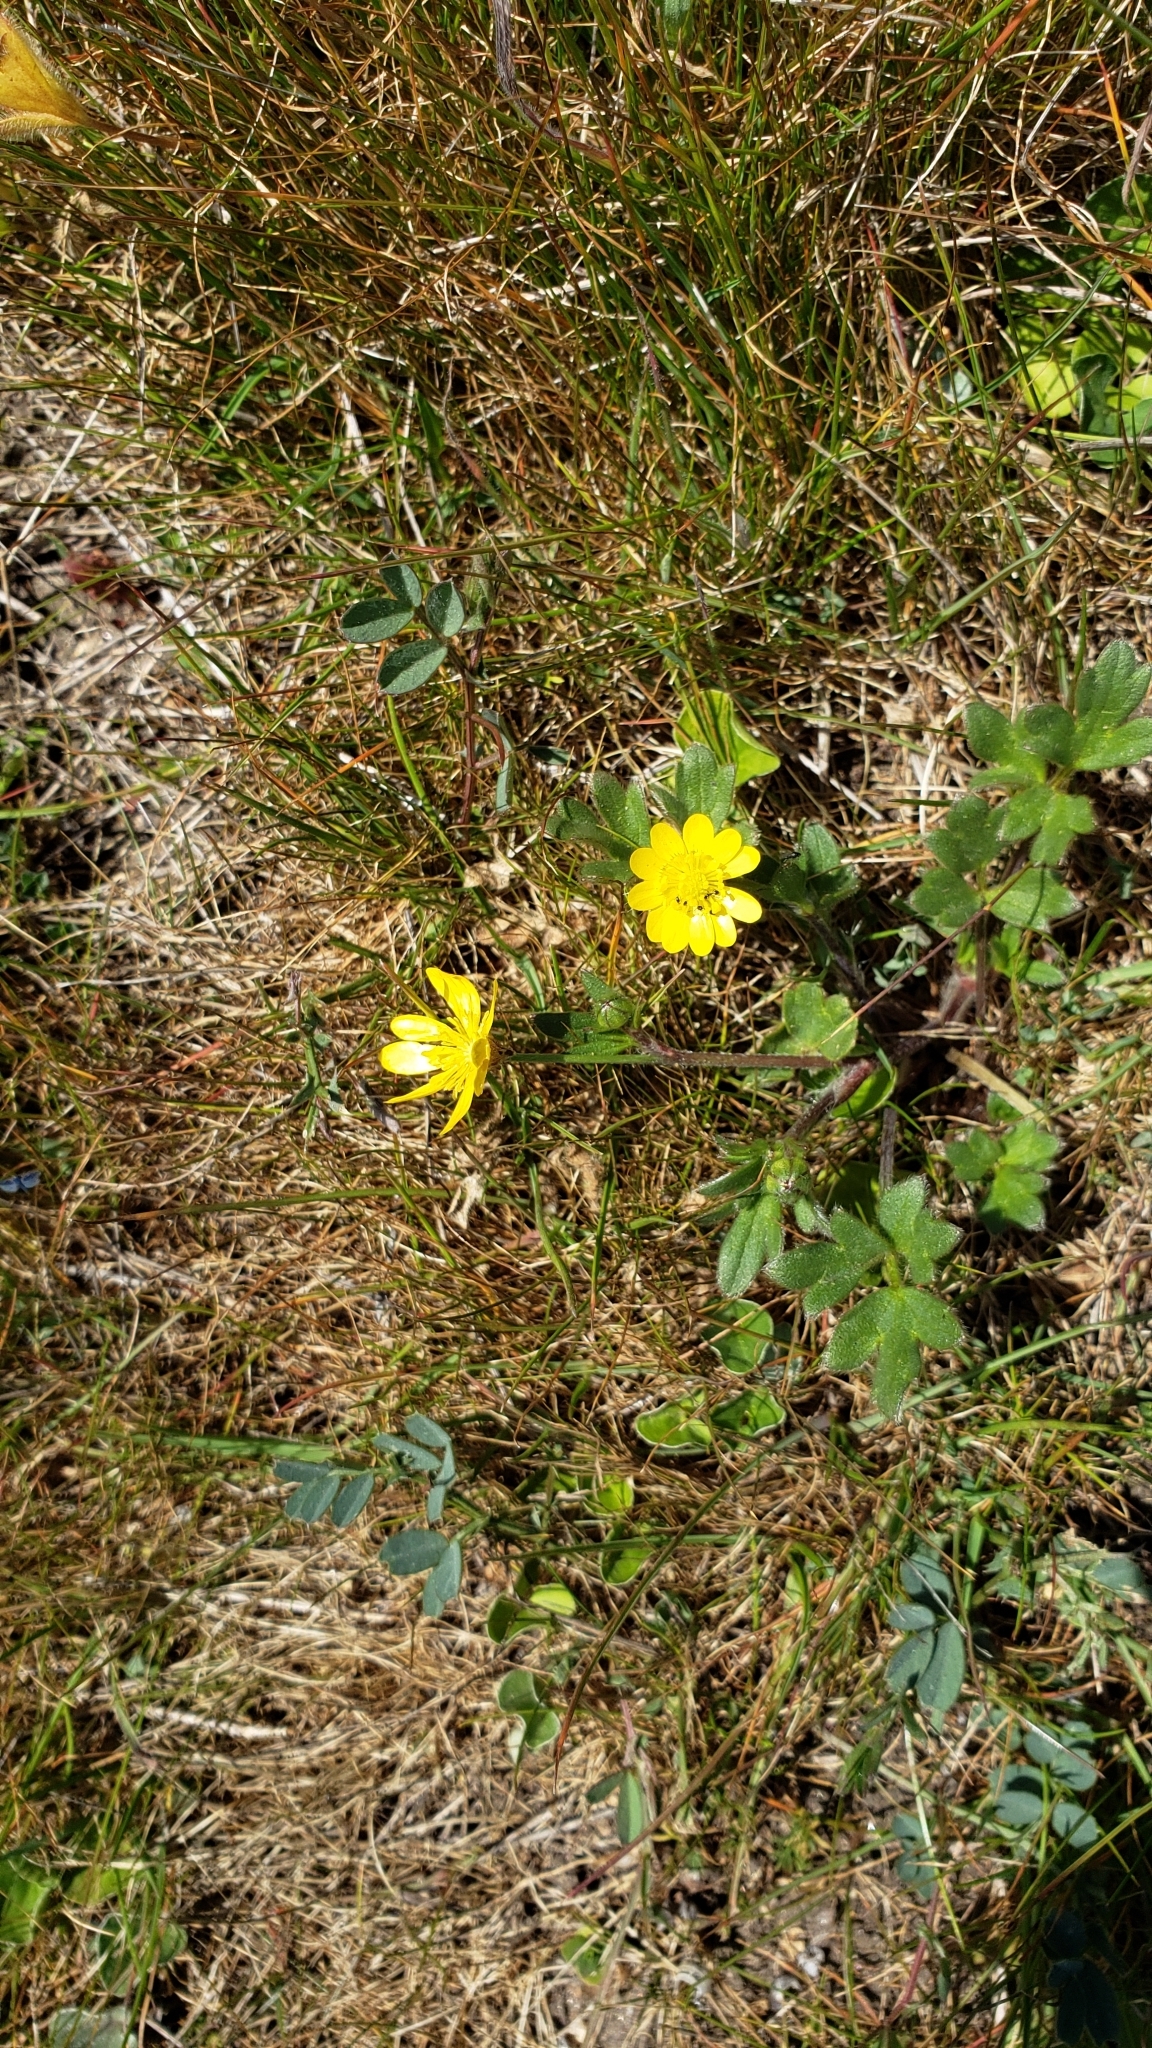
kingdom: Plantae
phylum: Tracheophyta
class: Magnoliopsida
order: Ranunculales
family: Ranunculaceae
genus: Ranunculus
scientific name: Ranunculus californicus
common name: California buttercup
